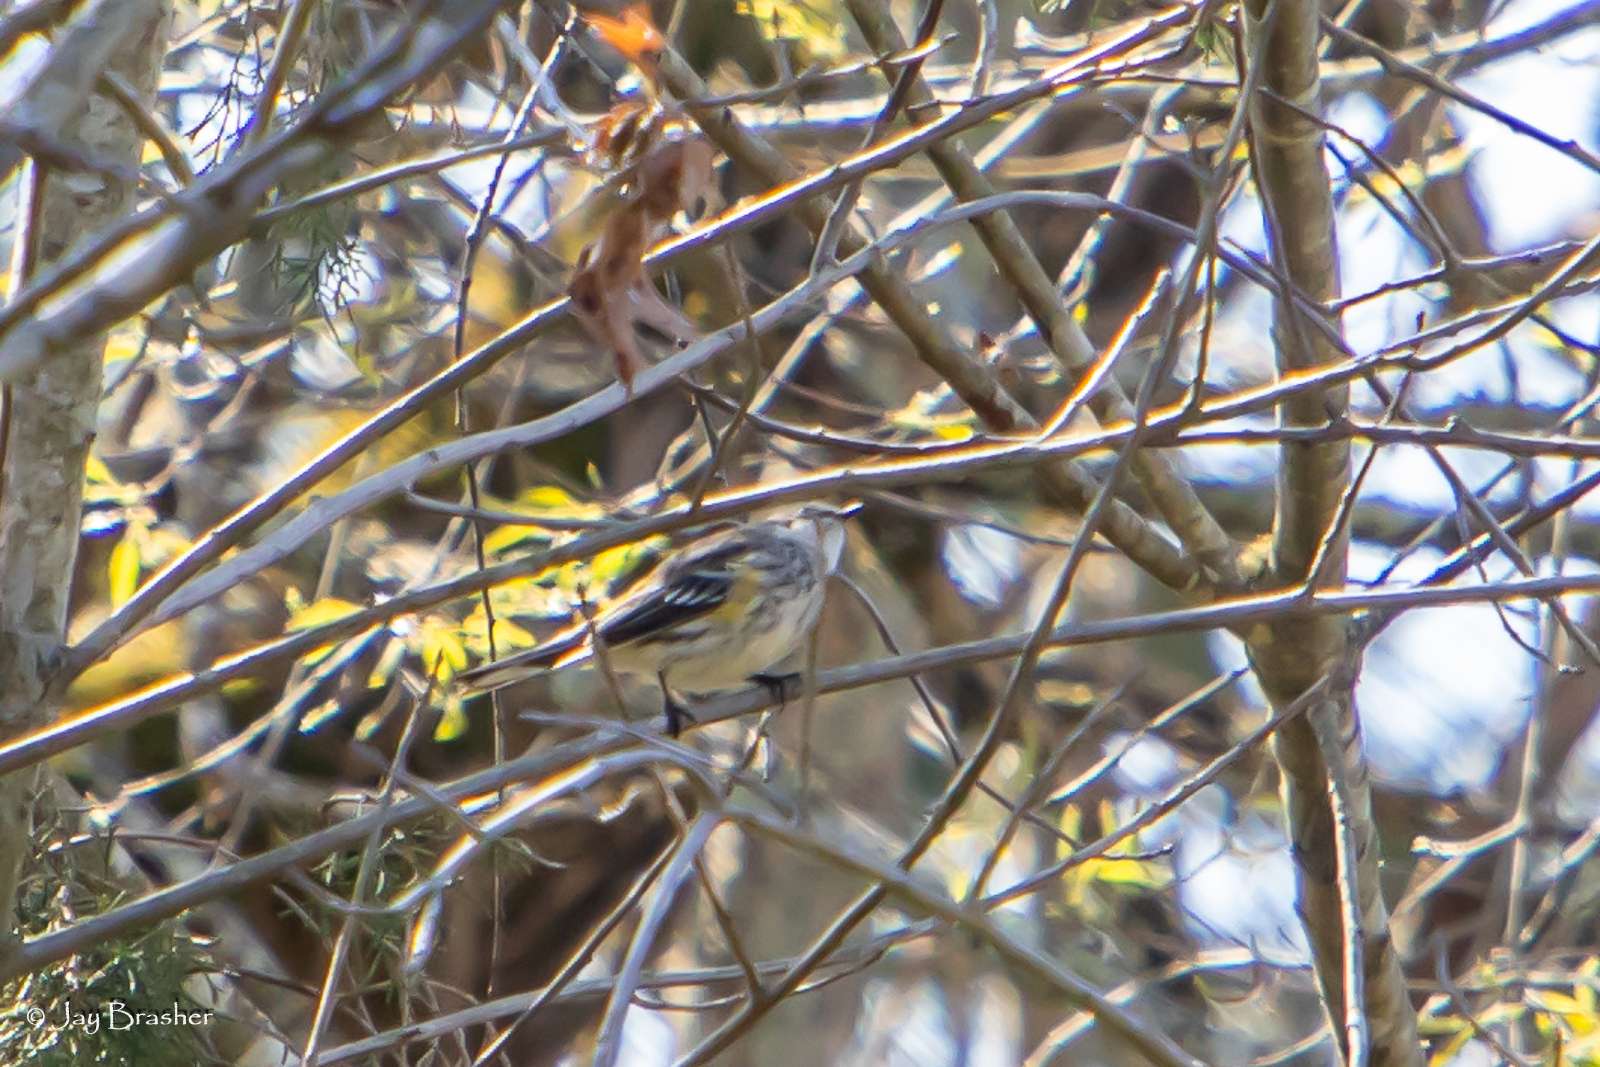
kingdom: Animalia
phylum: Chordata
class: Aves
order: Passeriformes
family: Parulidae
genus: Setophaga
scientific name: Setophaga coronata
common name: Myrtle warbler
